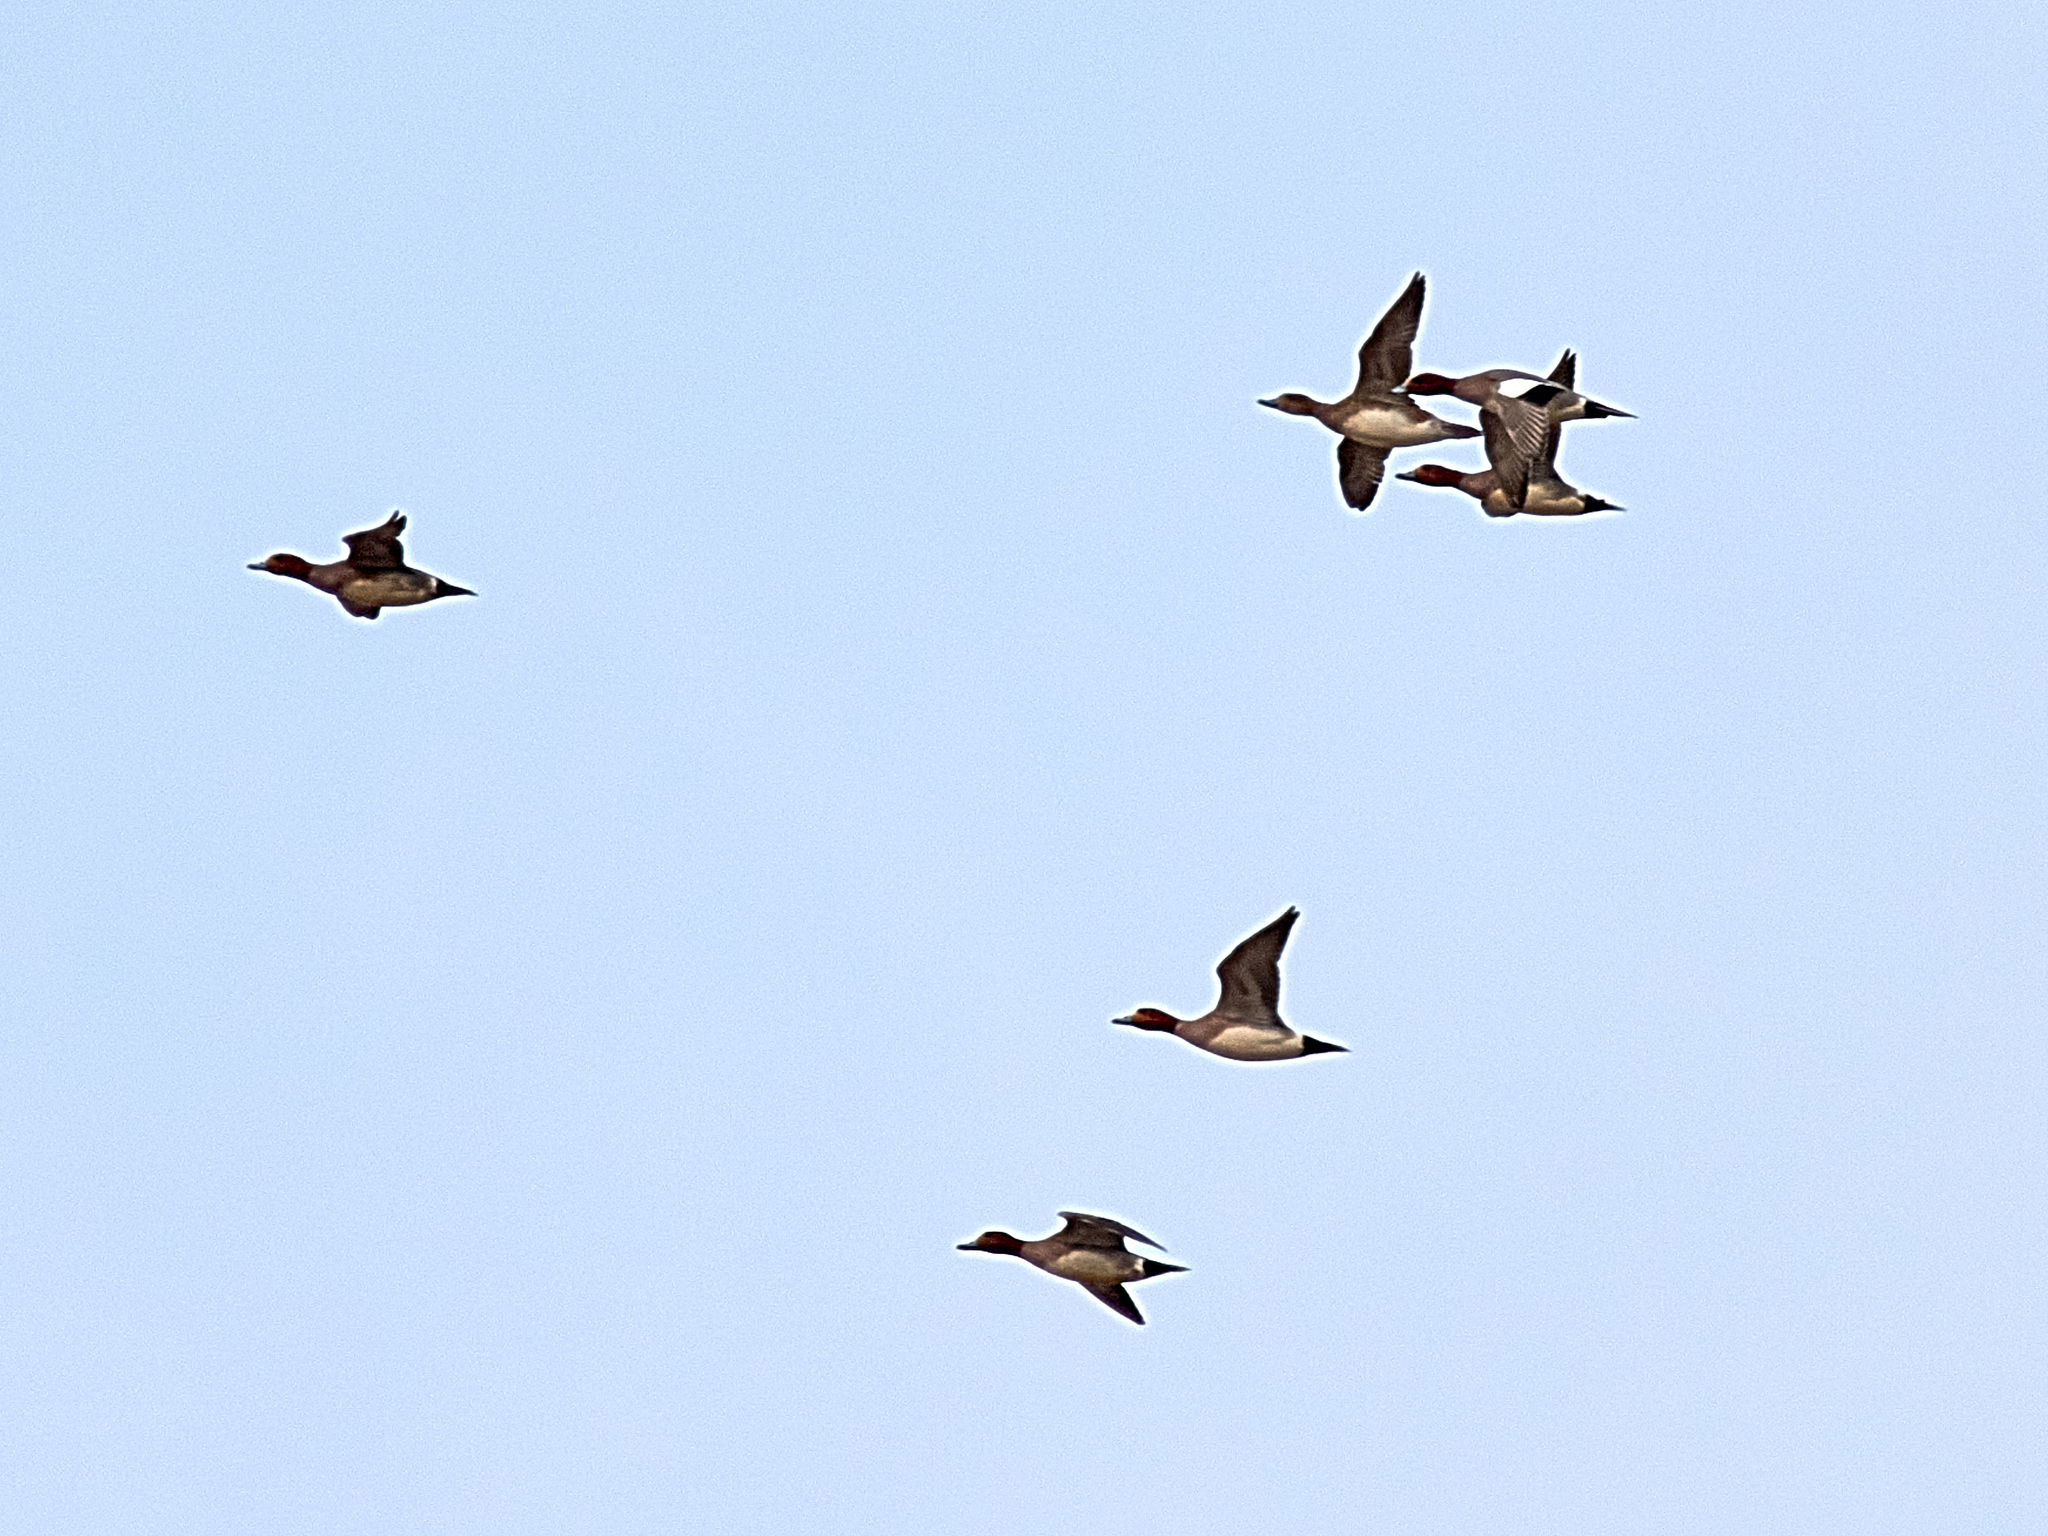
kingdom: Animalia
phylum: Chordata
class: Aves
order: Anseriformes
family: Anatidae
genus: Mareca
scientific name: Mareca penelope
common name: Eurasian wigeon
